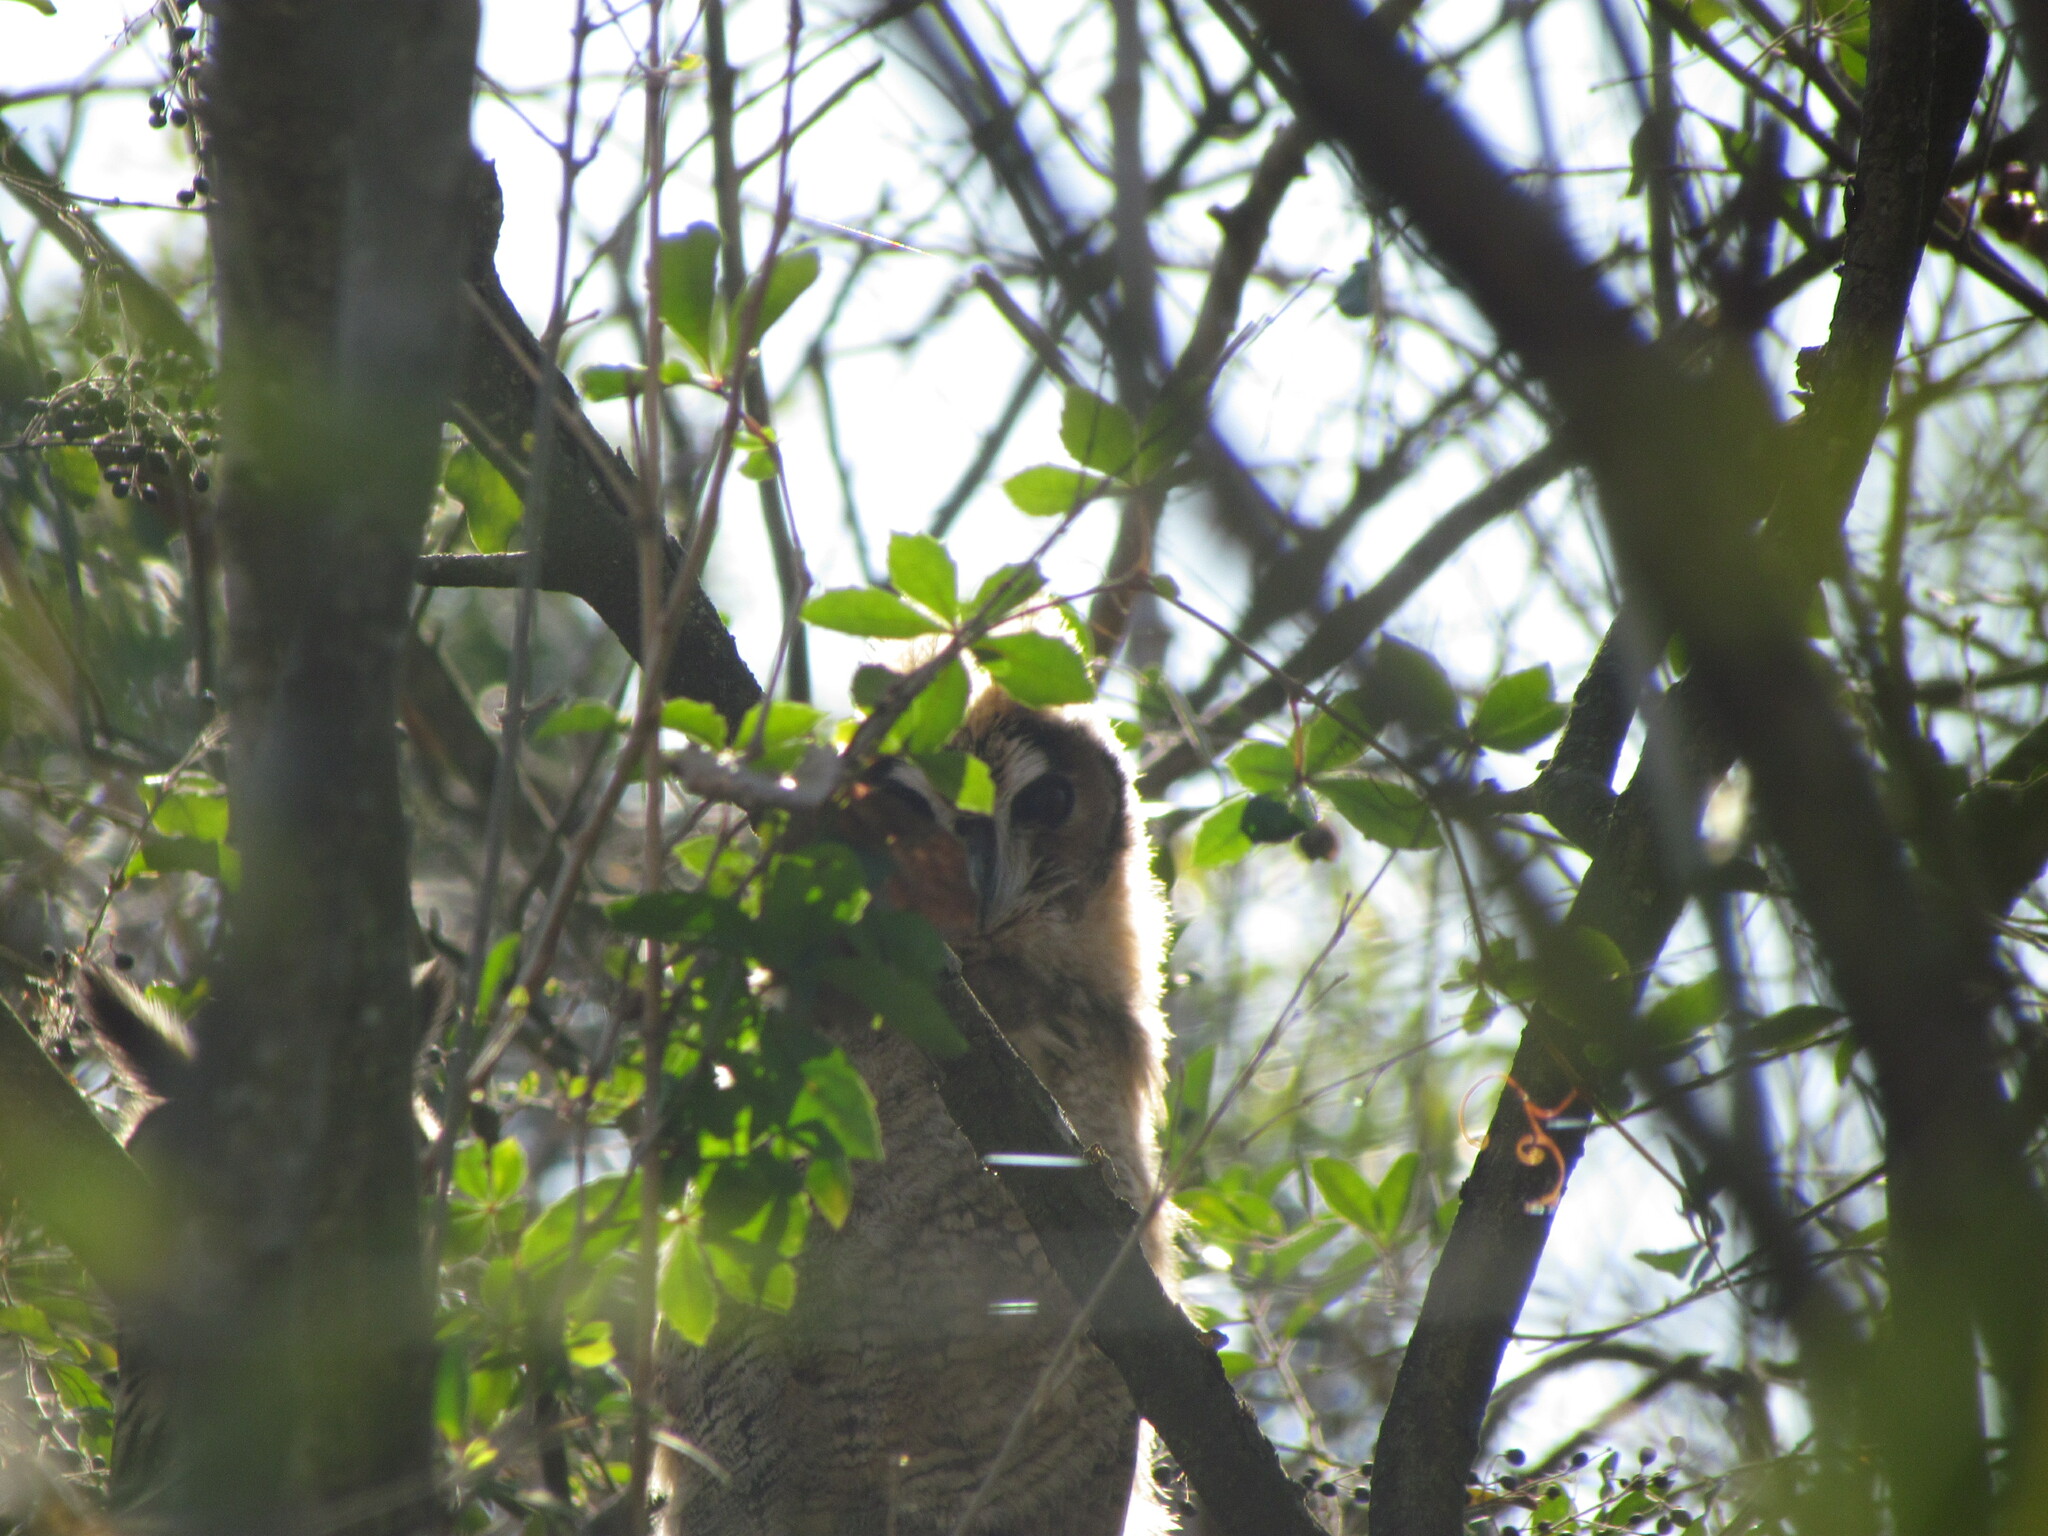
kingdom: Animalia
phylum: Chordata
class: Aves
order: Strigiformes
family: Strigidae
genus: Pseudoscops
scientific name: Pseudoscops clamator
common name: Striped owl
